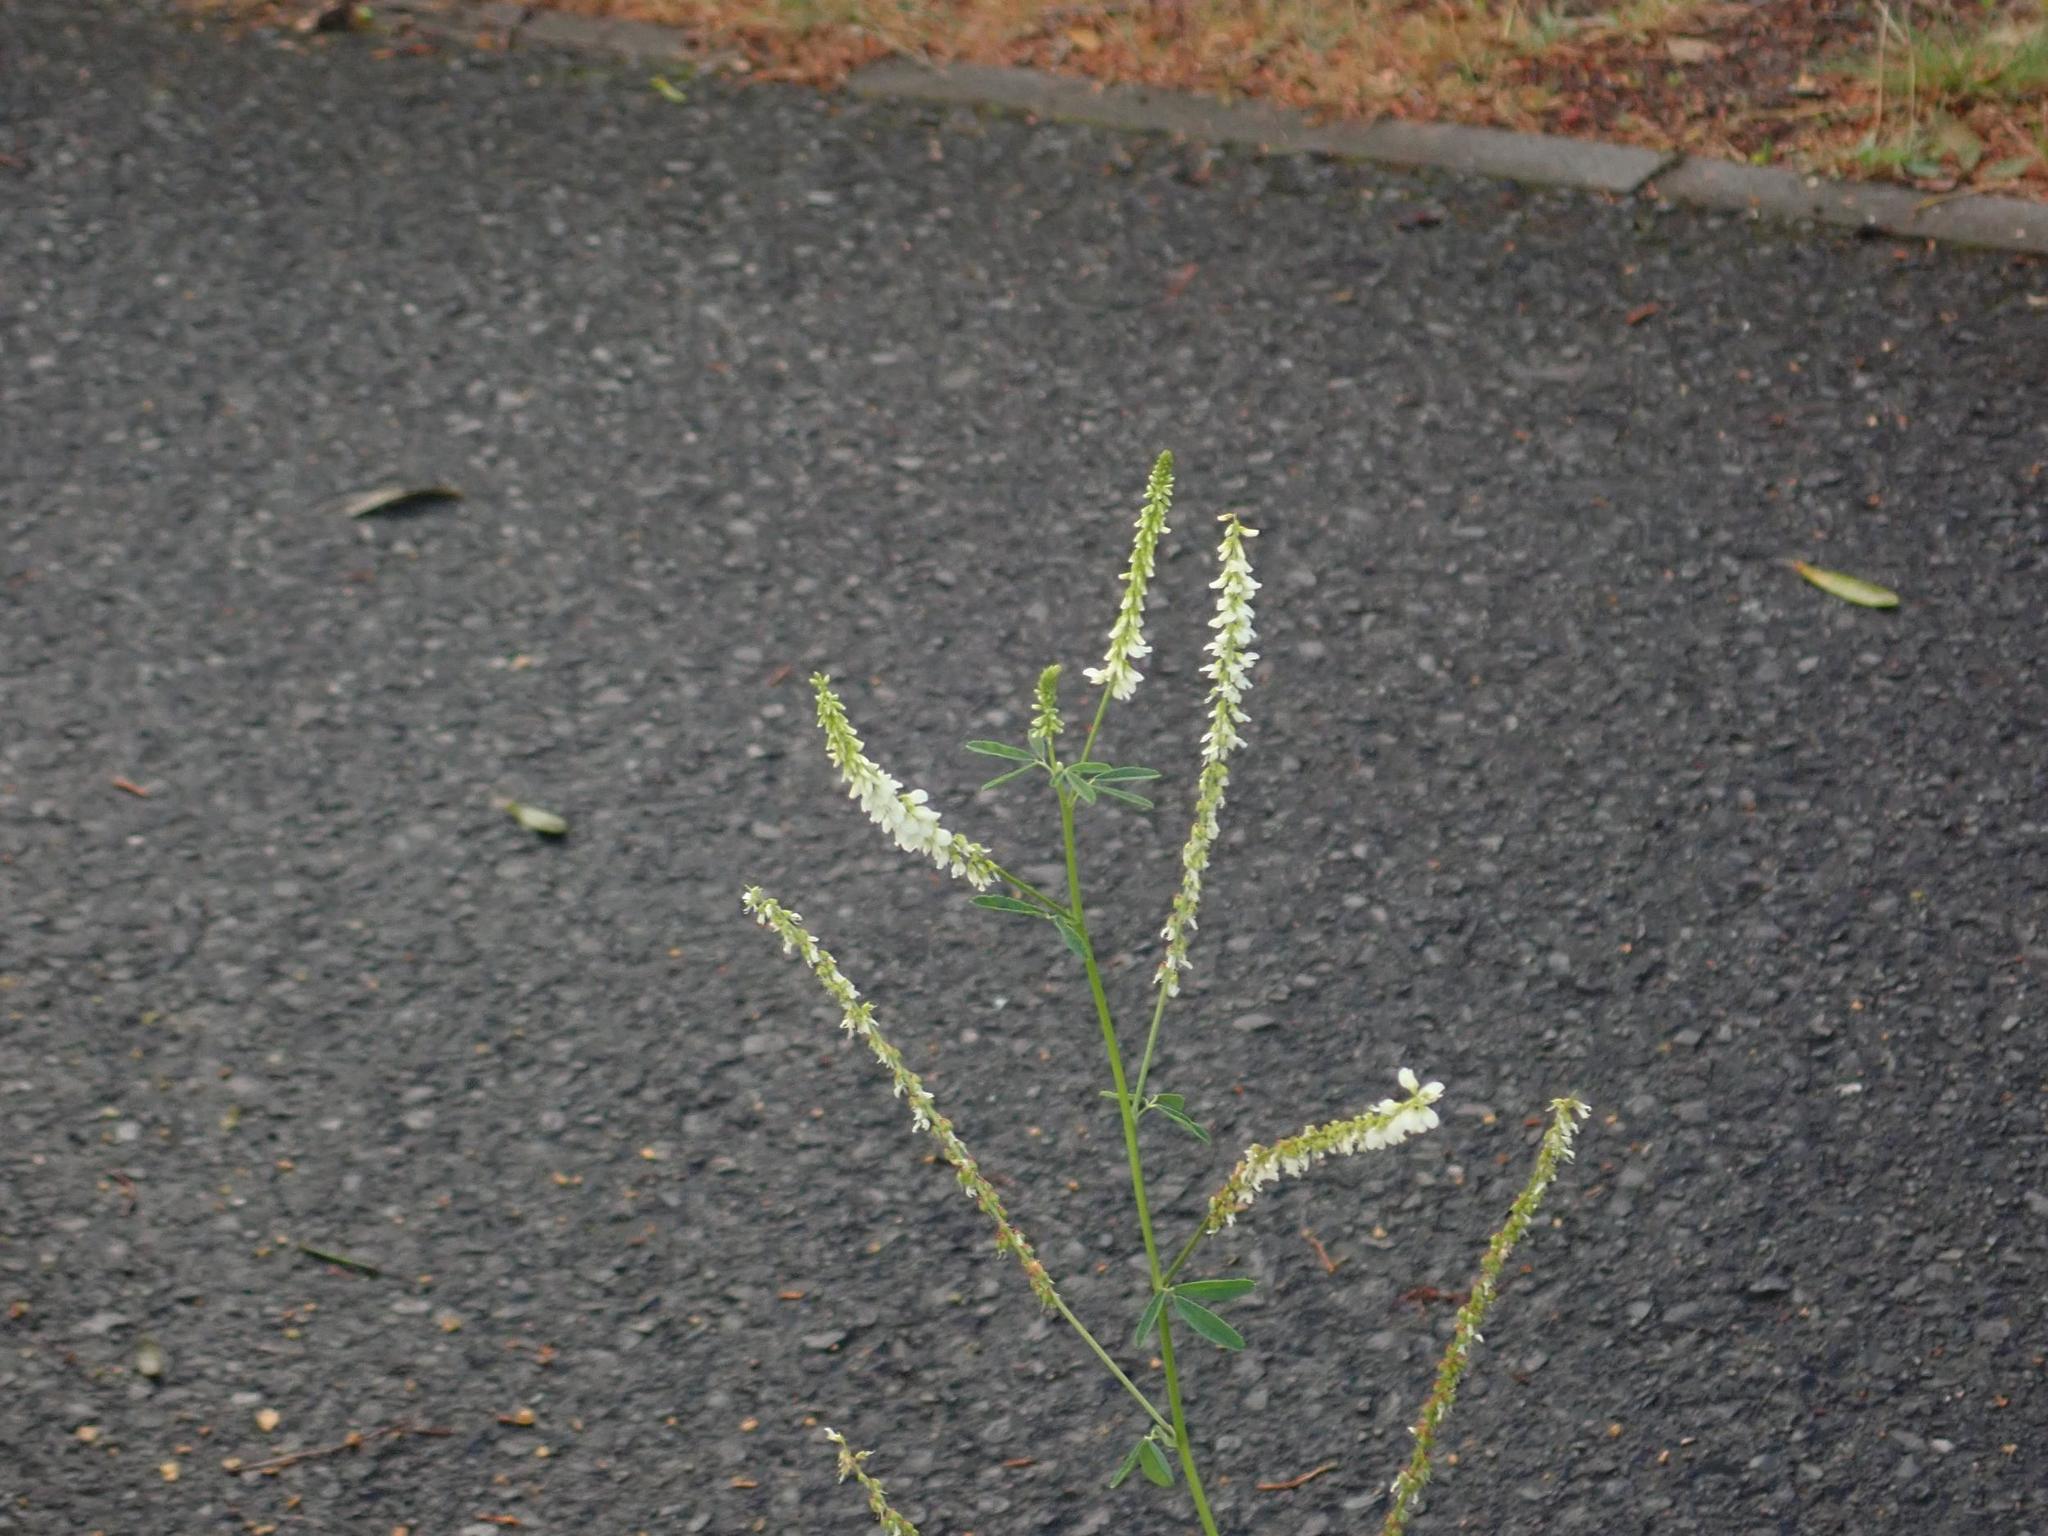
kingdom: Plantae
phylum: Tracheophyta
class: Magnoliopsida
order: Fabales
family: Fabaceae
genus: Melilotus
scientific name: Melilotus albus
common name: White melilot
